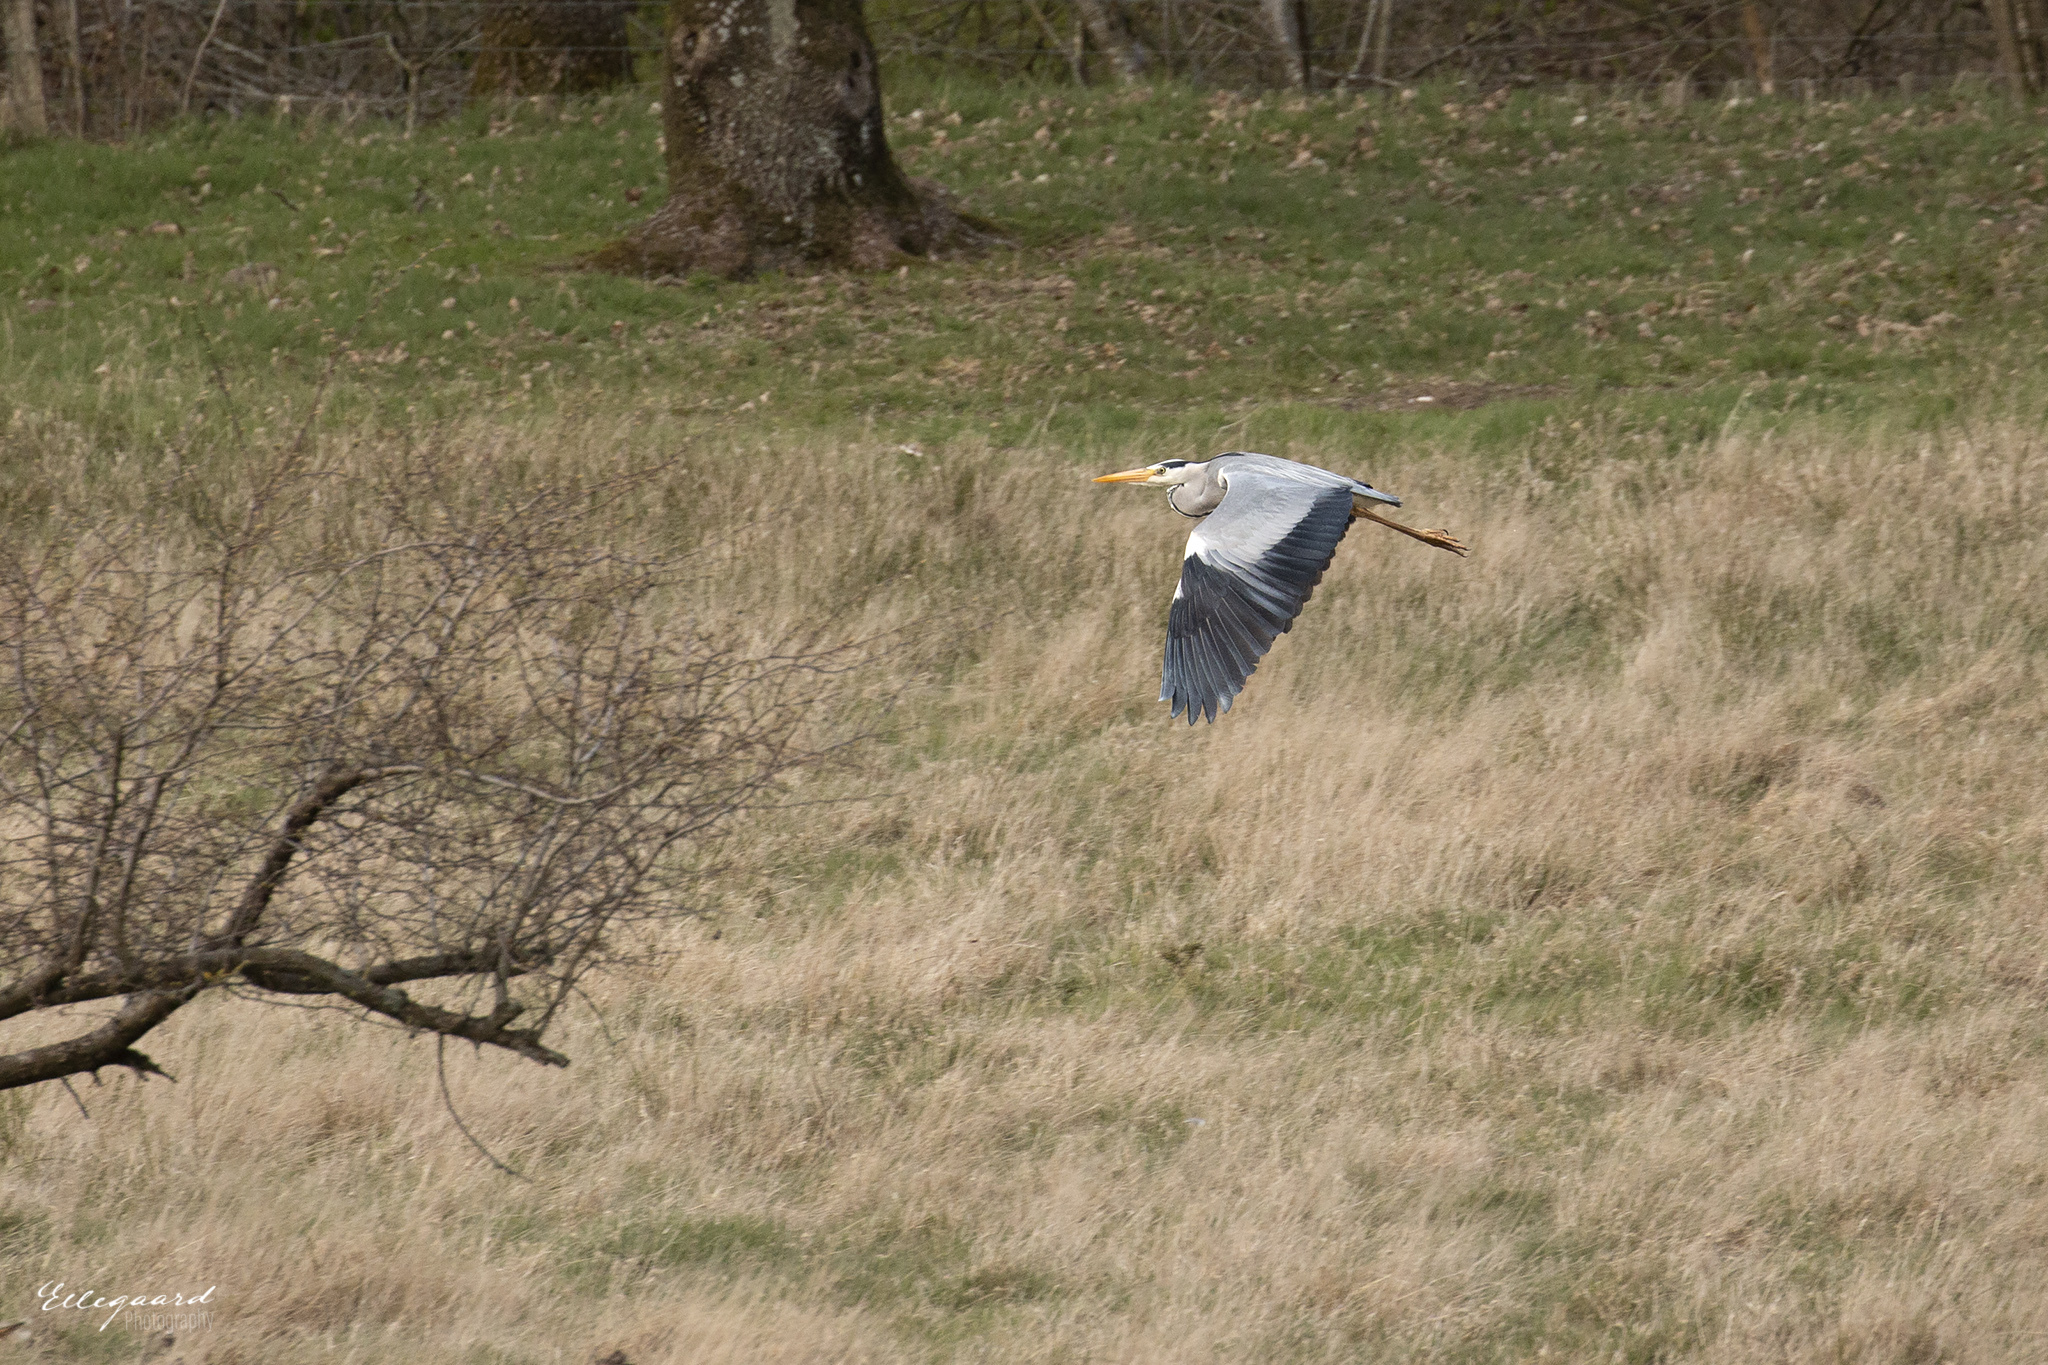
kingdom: Animalia
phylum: Chordata
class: Aves
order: Pelecaniformes
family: Ardeidae
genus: Ardea
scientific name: Ardea cinerea
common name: Grey heron
